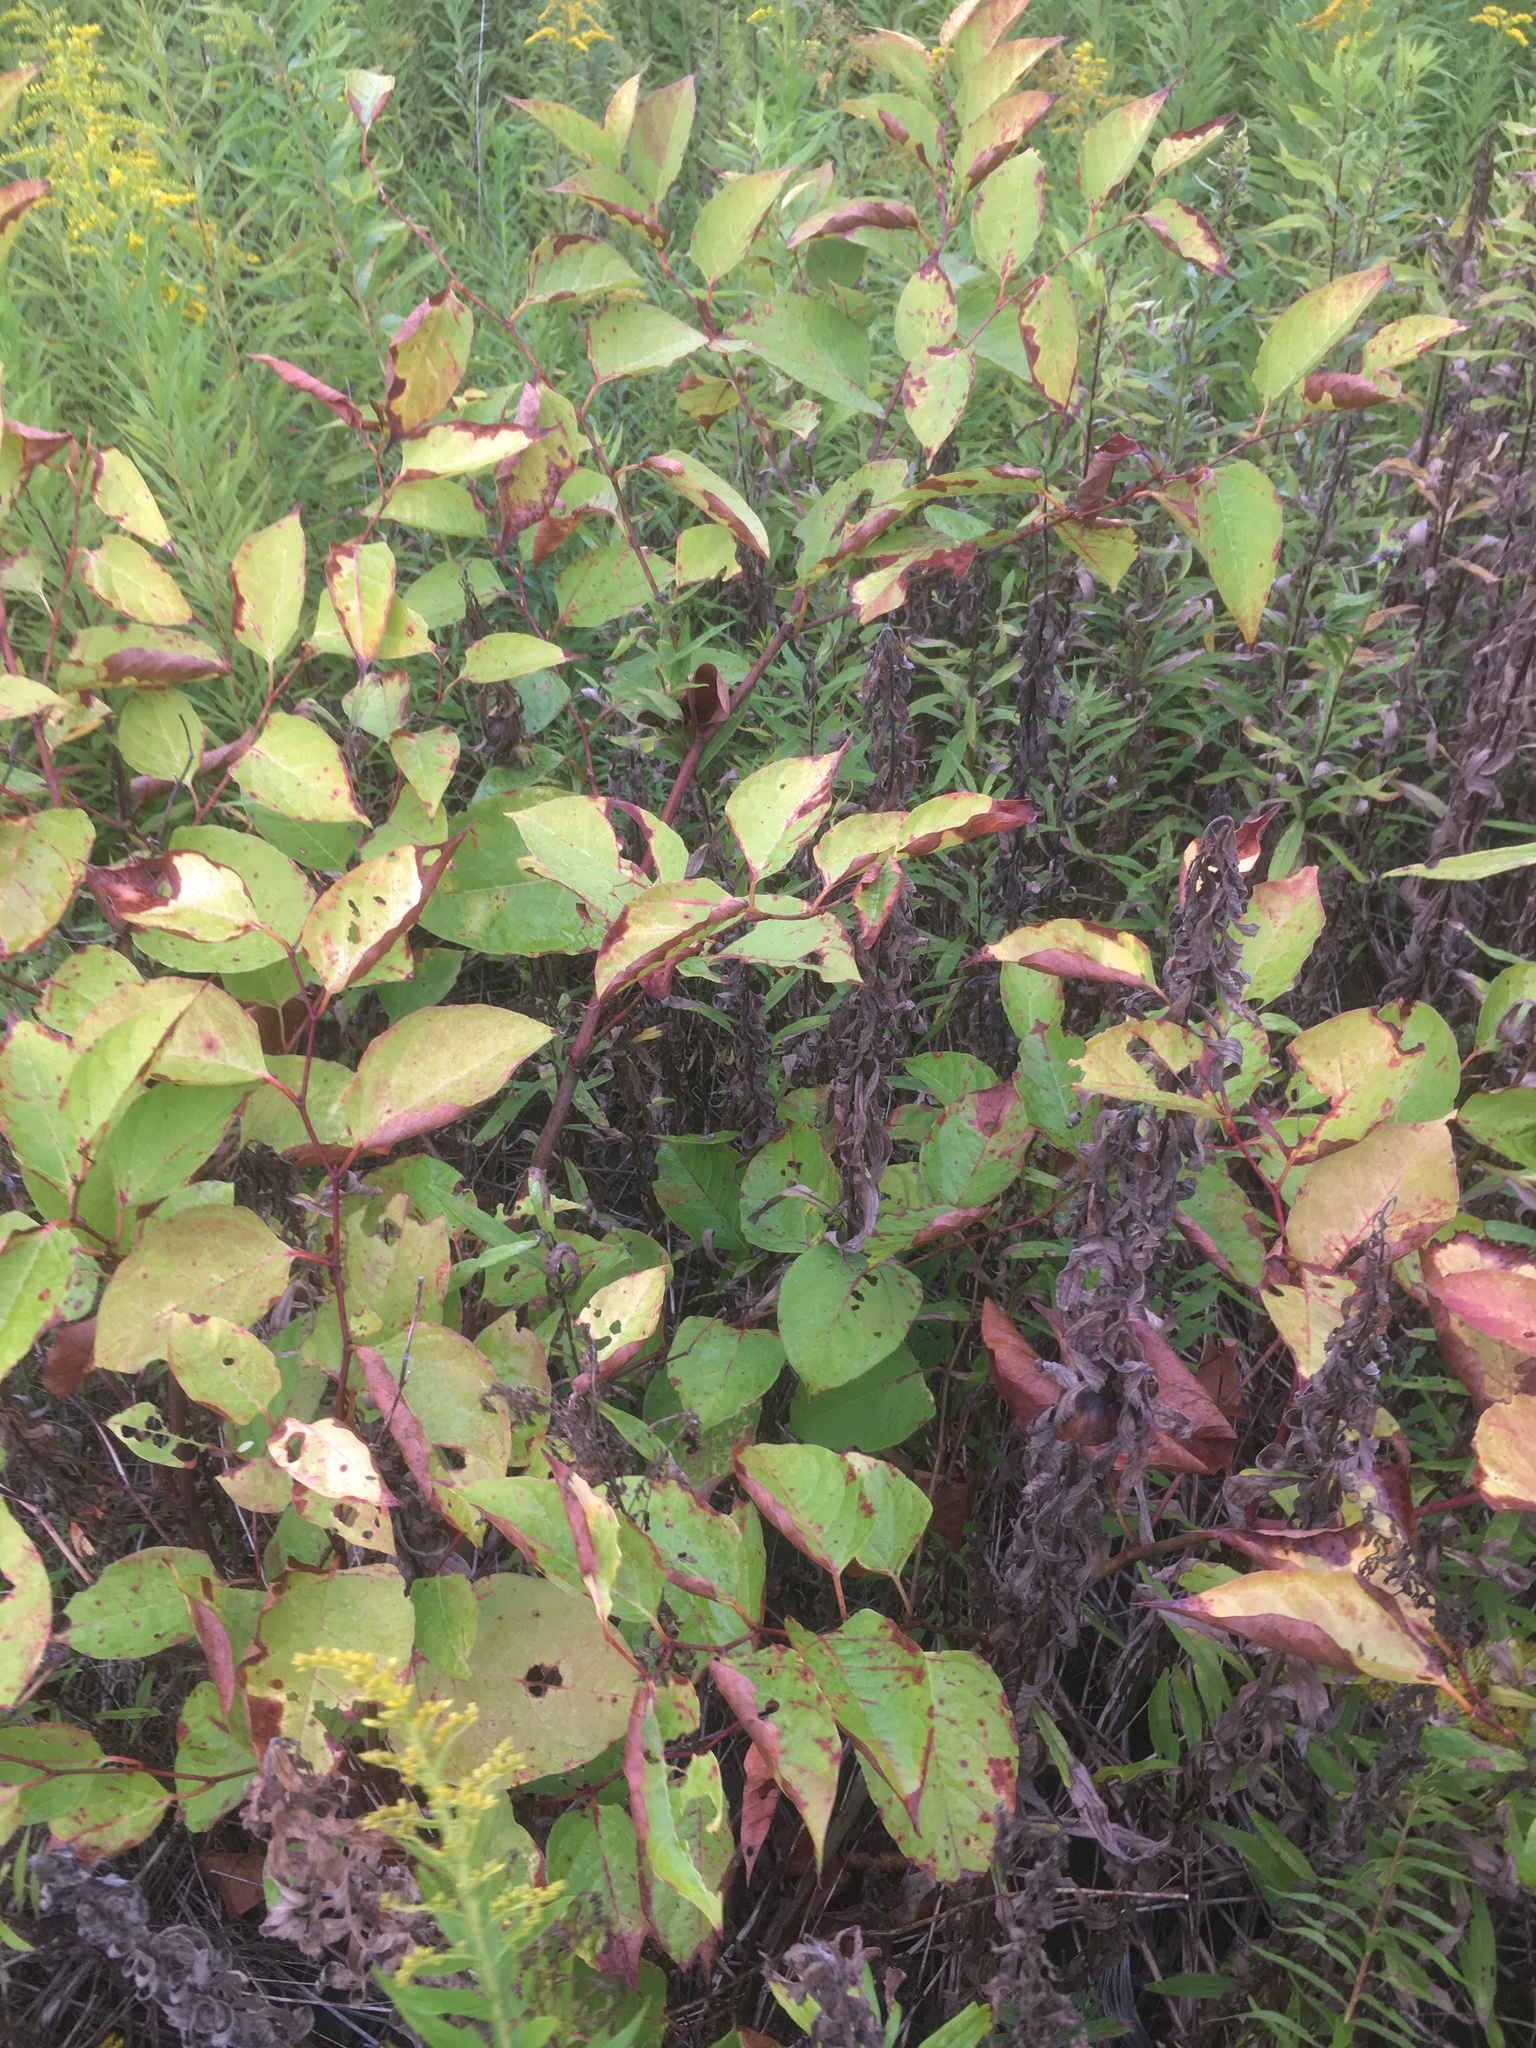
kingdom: Plantae
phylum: Tracheophyta
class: Magnoliopsida
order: Caryophyllales
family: Polygonaceae
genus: Reynoutria
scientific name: Reynoutria japonica
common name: Japanese knotweed
